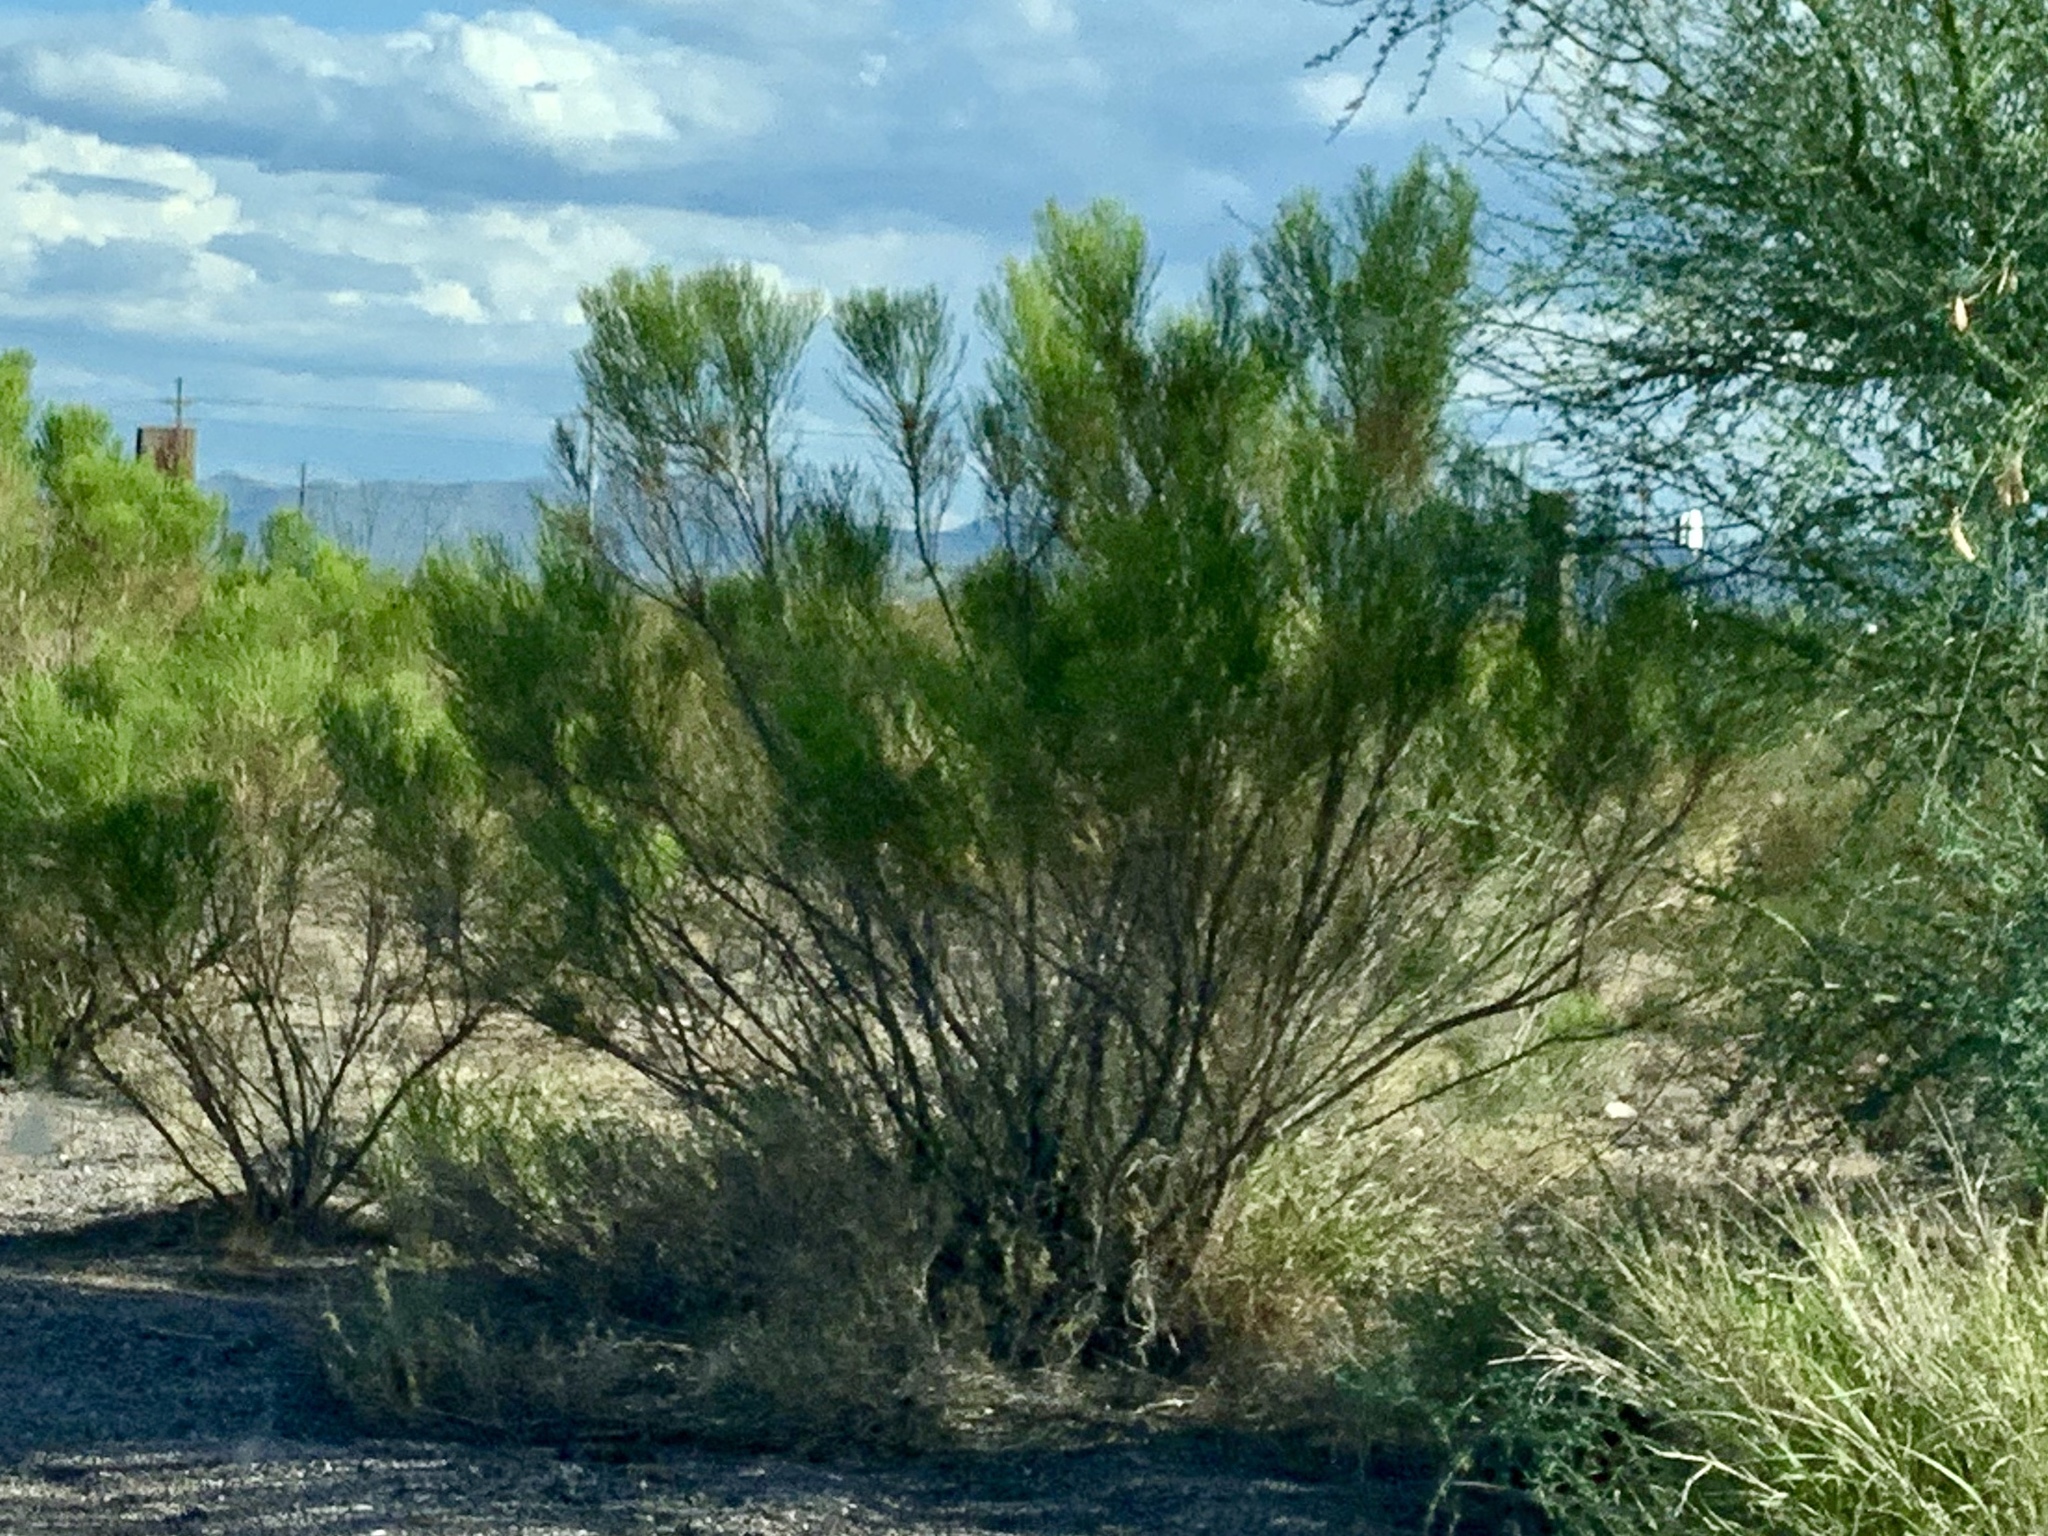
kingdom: Plantae
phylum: Tracheophyta
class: Magnoliopsida
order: Asterales
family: Asteraceae
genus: Baccharis
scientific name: Baccharis sarothroides
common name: Desert-broom
